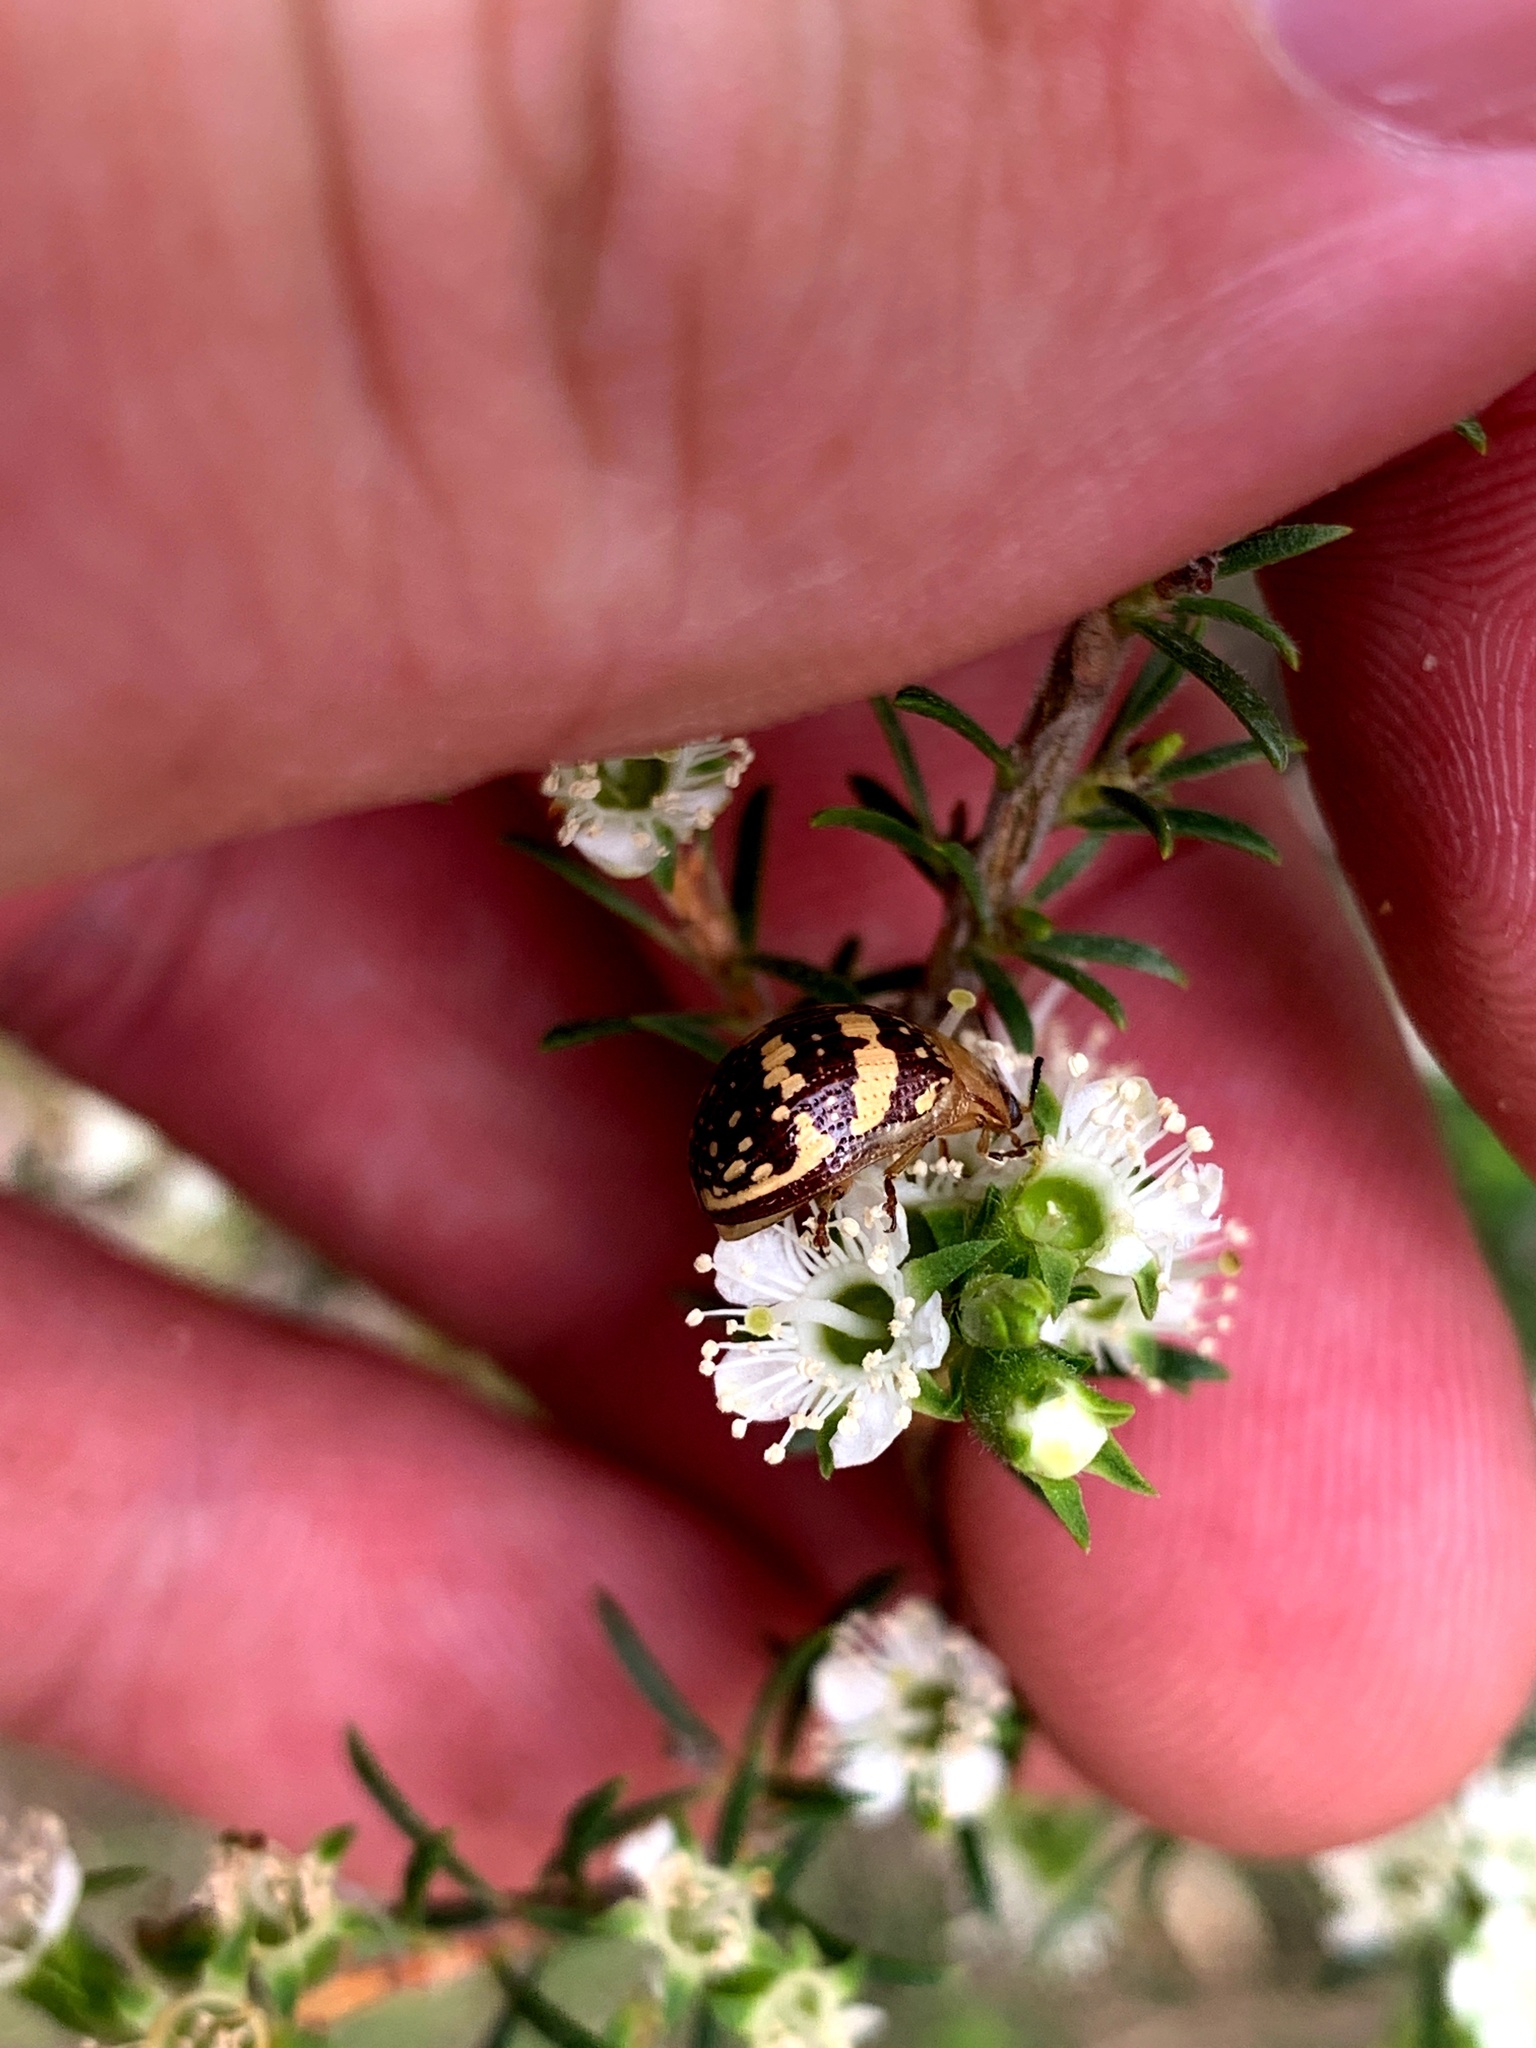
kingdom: Animalia
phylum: Arthropoda
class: Insecta
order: Coleoptera
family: Chrysomelidae
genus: Paropsis
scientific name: Paropsis
